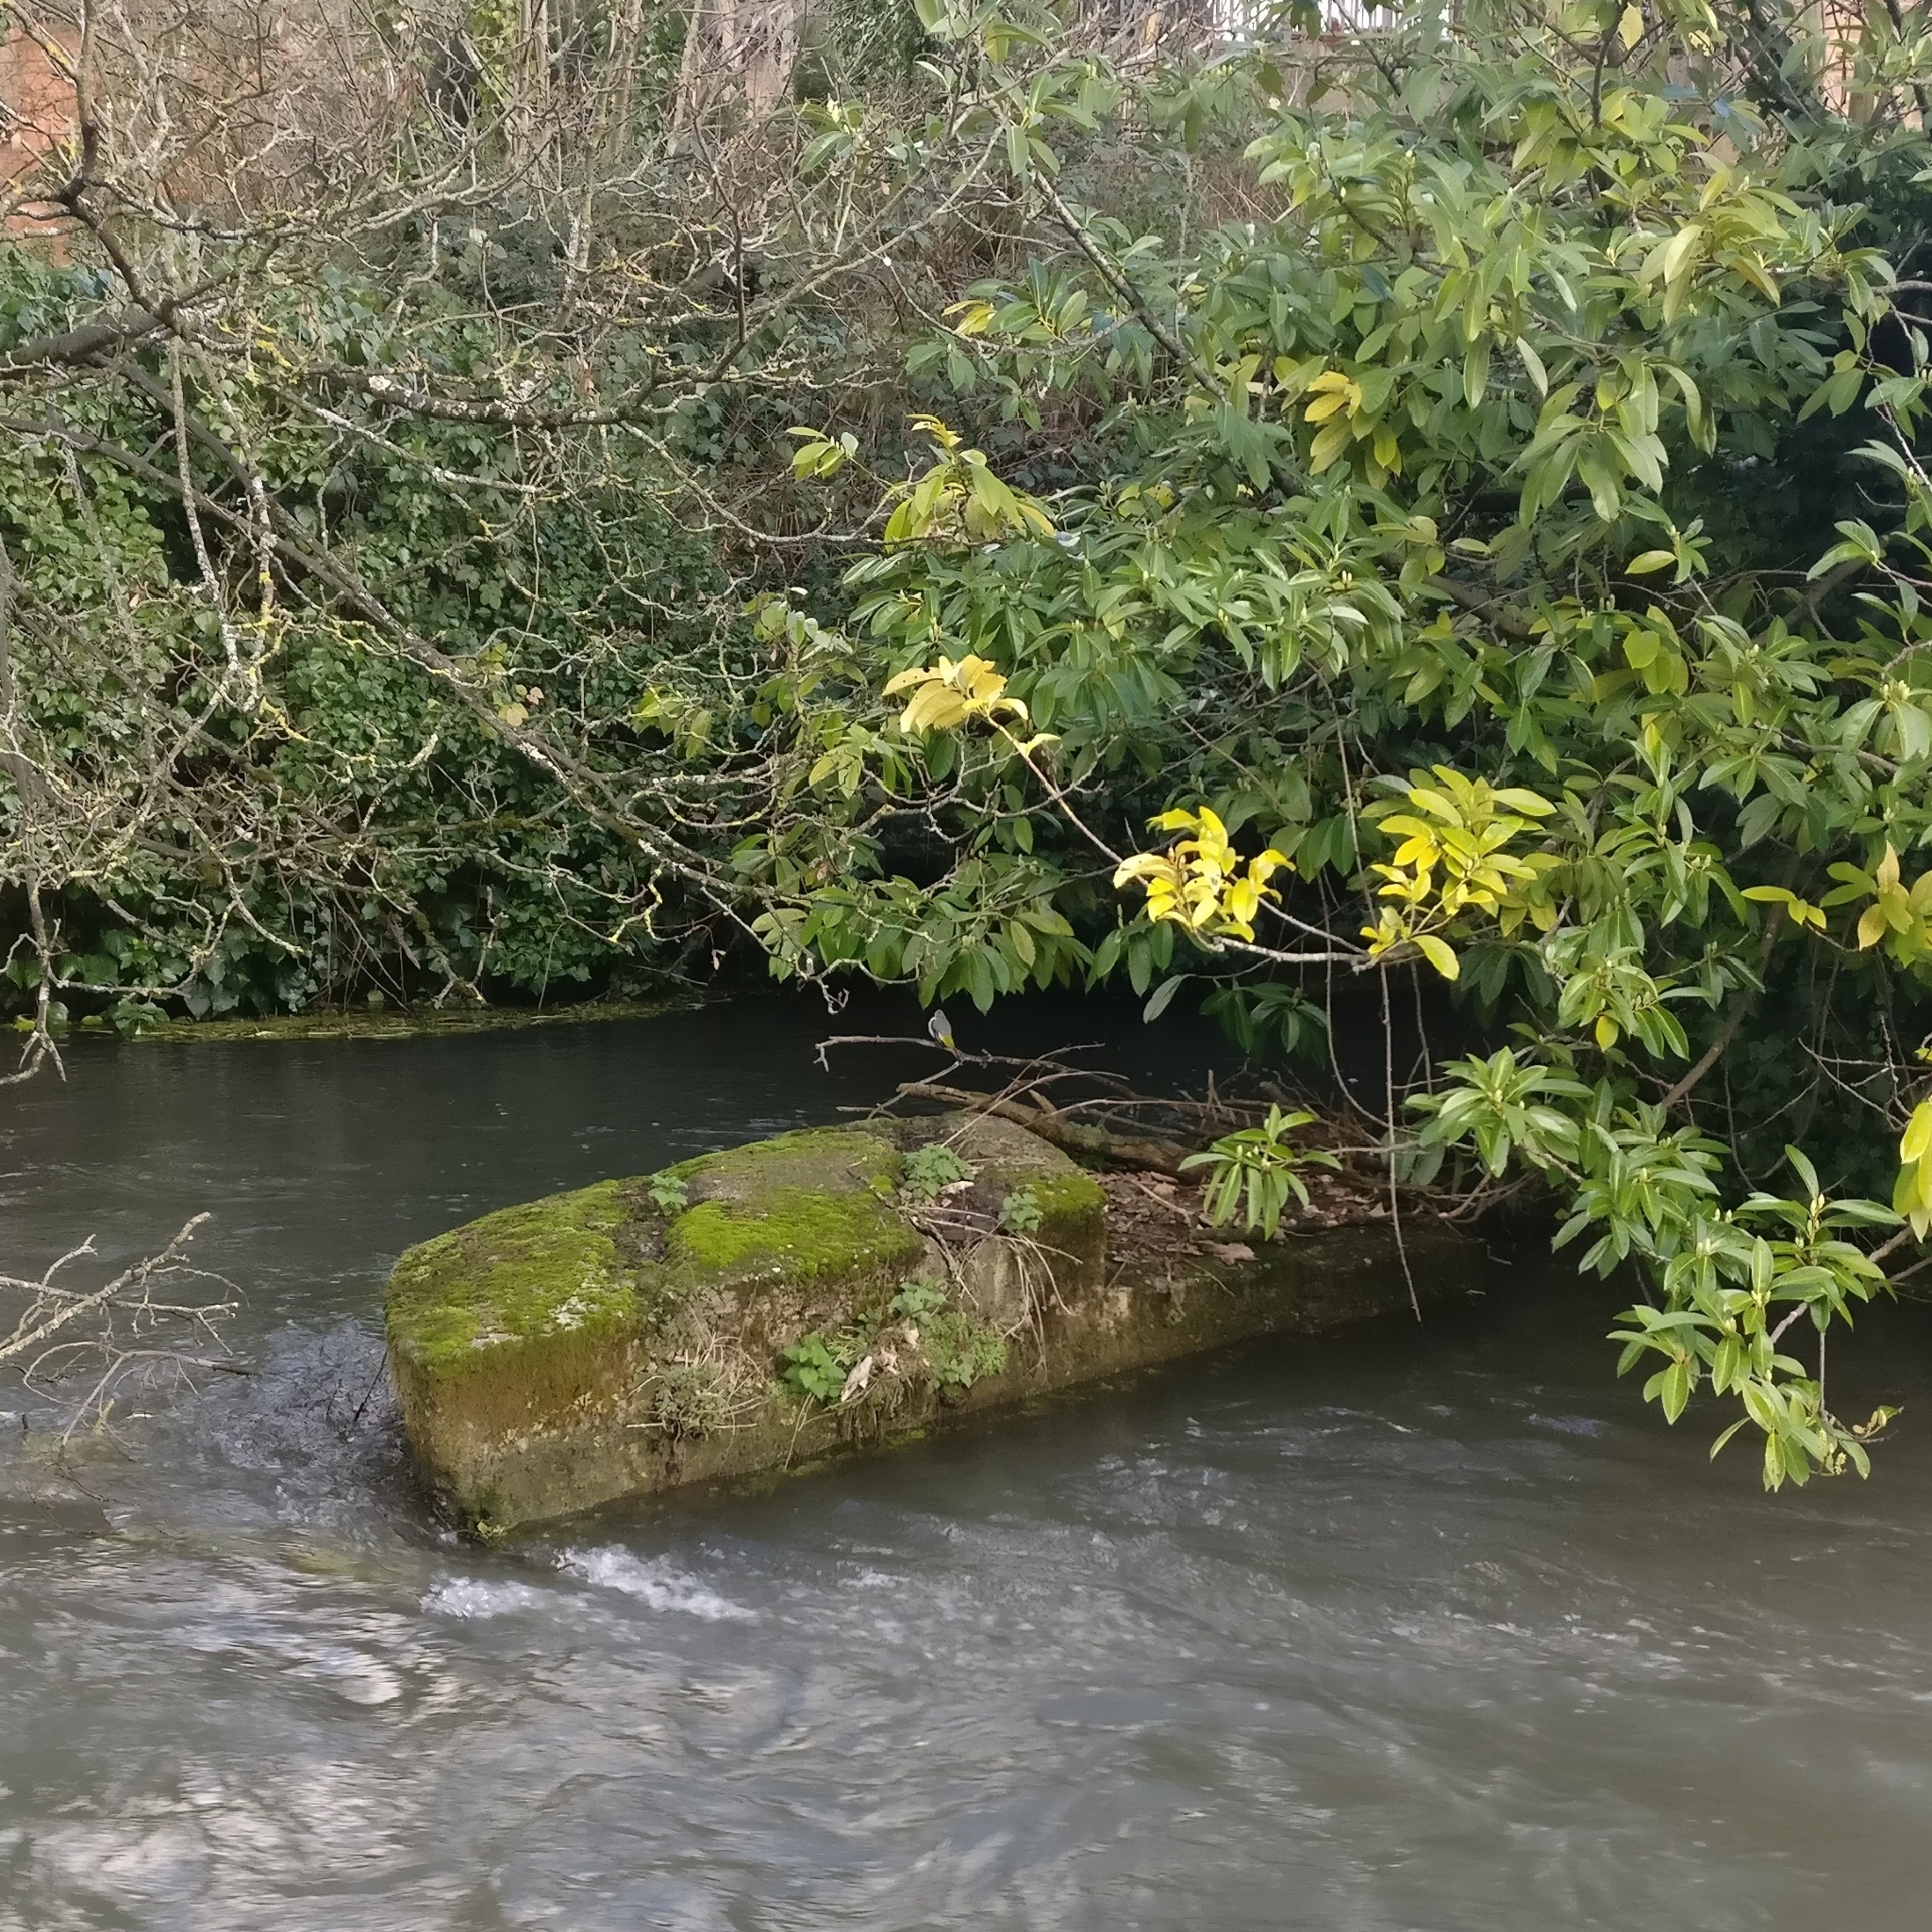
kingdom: Animalia
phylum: Chordata
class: Aves
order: Passeriformes
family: Motacillidae
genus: Motacilla
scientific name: Motacilla cinerea
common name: Grey wagtail
